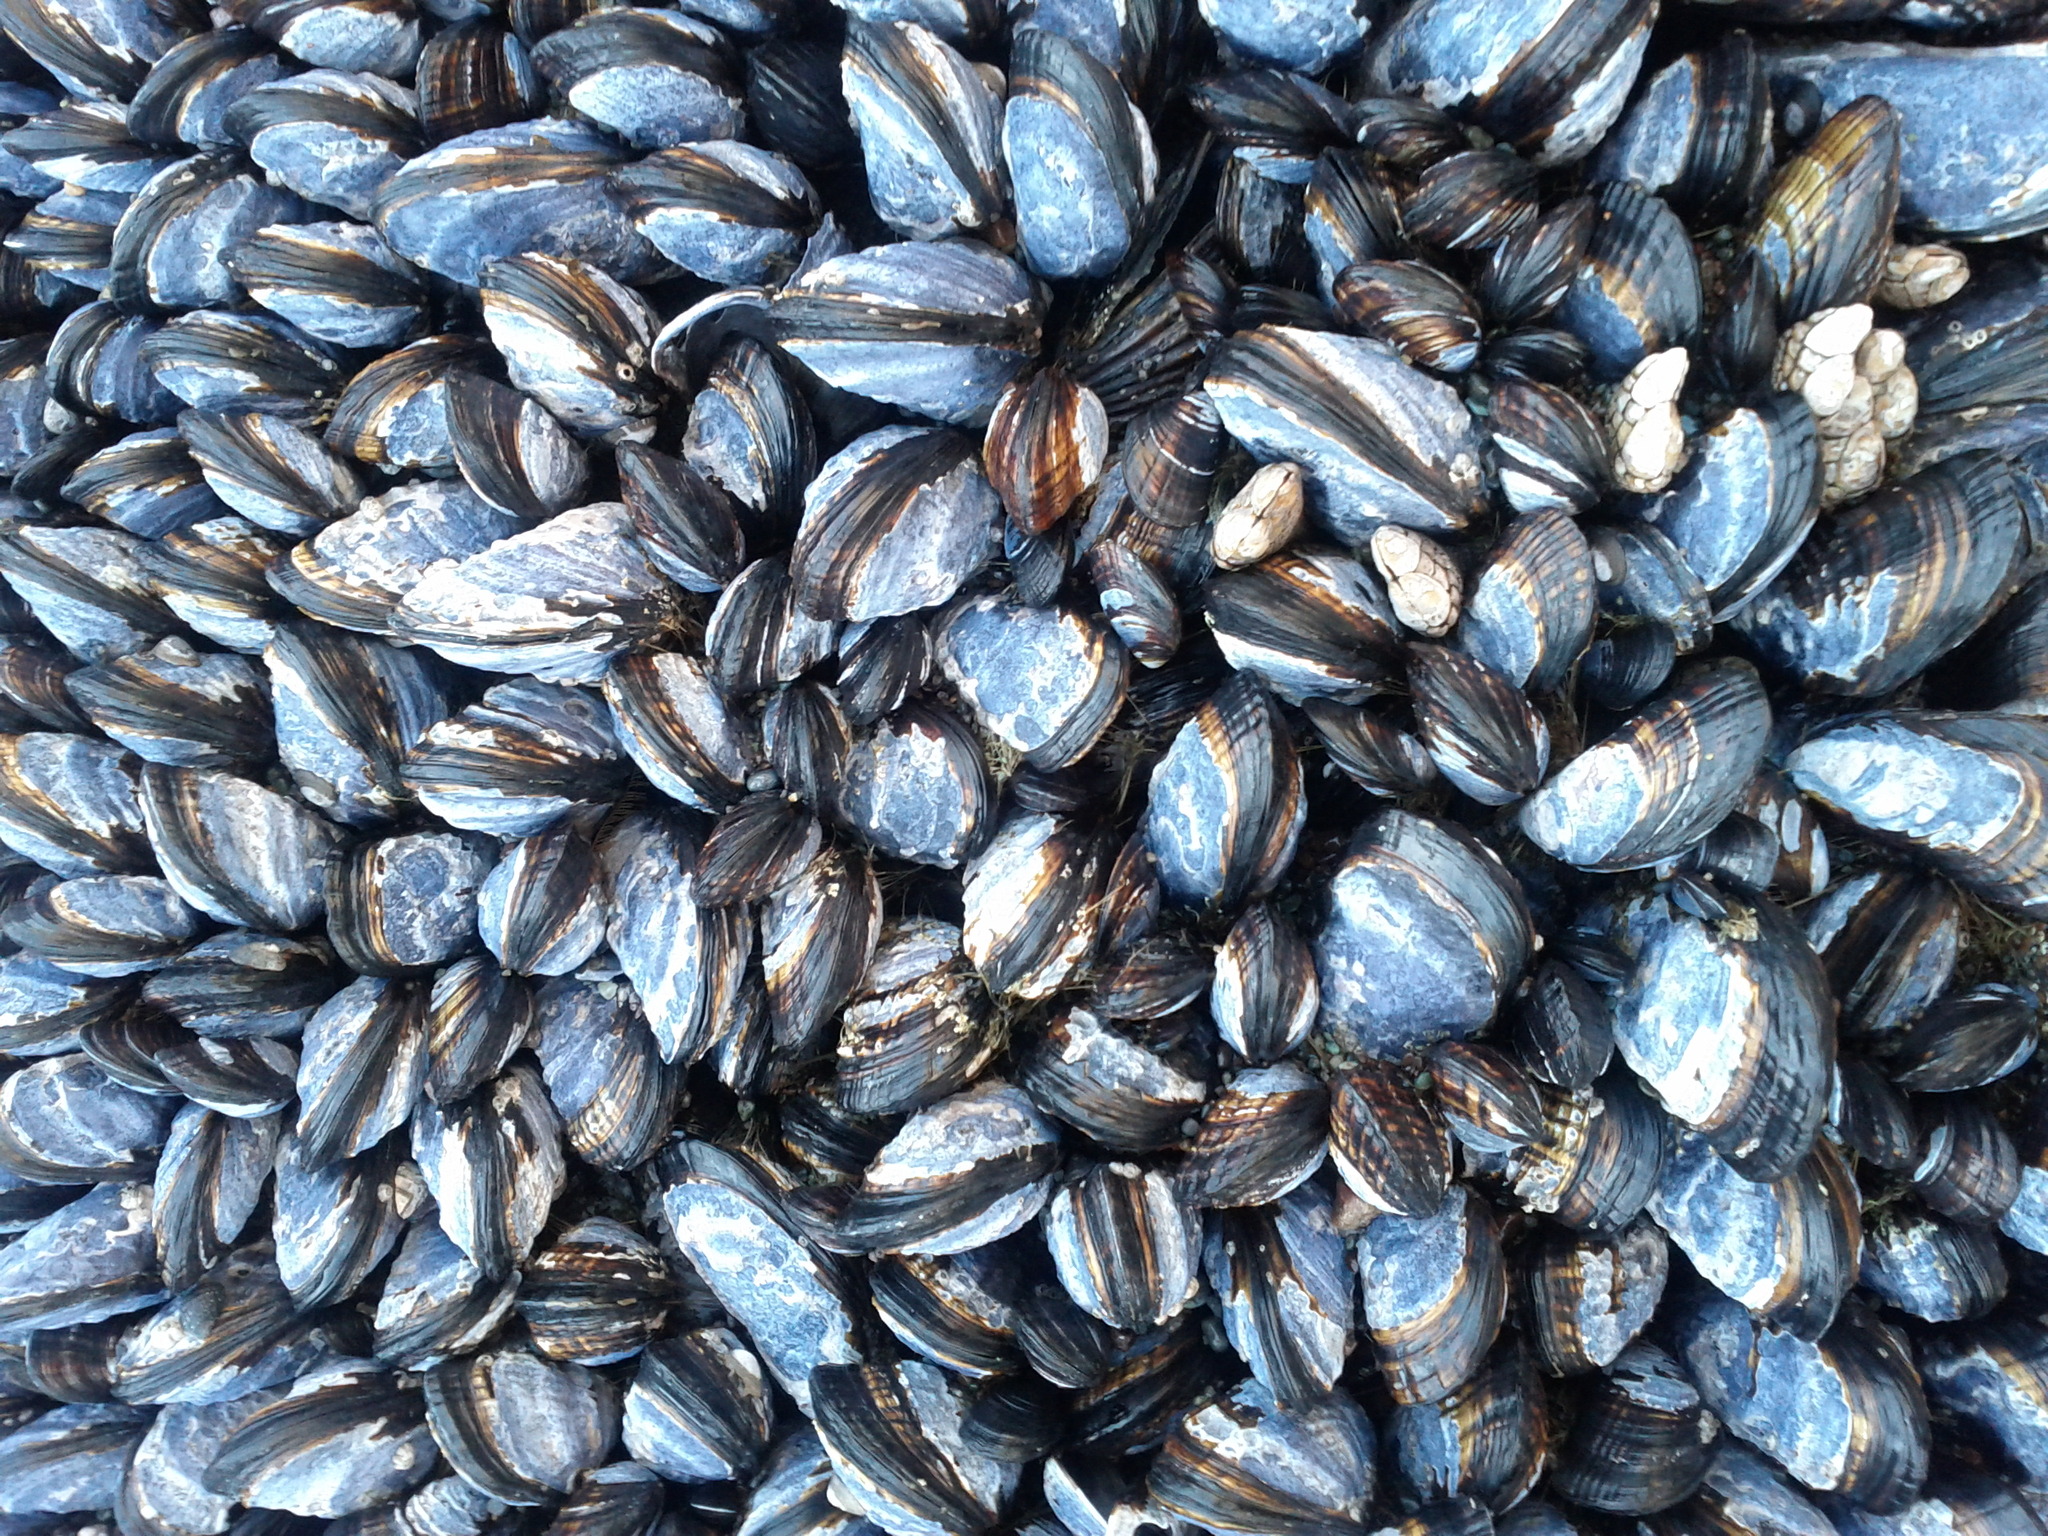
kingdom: Animalia
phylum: Mollusca
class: Bivalvia
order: Mytilida
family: Mytilidae
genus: Mytilus
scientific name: Mytilus californianus
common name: California mussel
